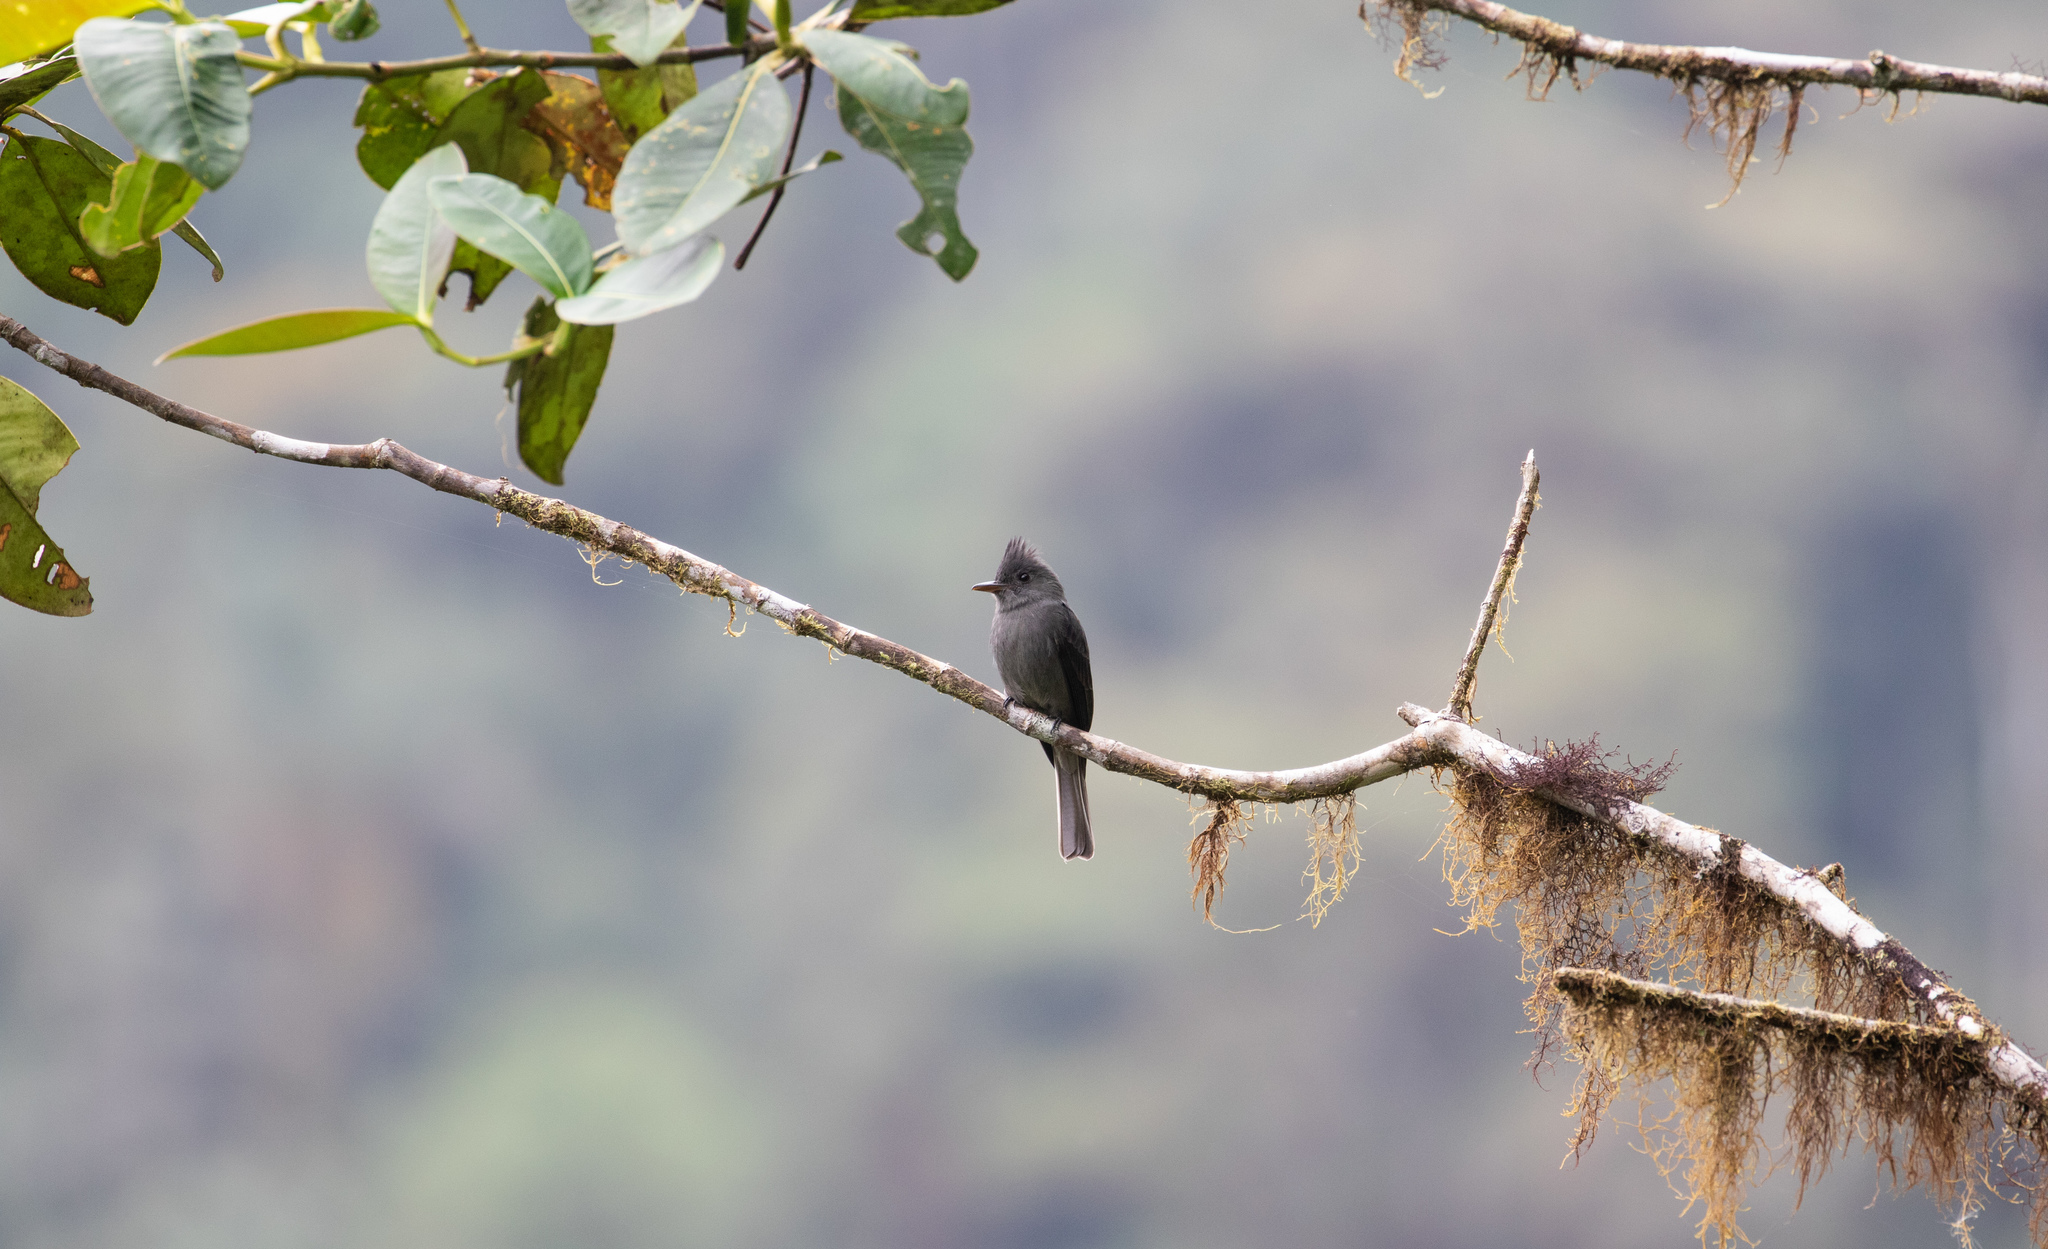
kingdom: Animalia
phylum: Chordata
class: Aves
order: Passeriformes
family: Tyrannidae
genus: Contopus
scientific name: Contopus fumigatus
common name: Smoke-colored pewee
